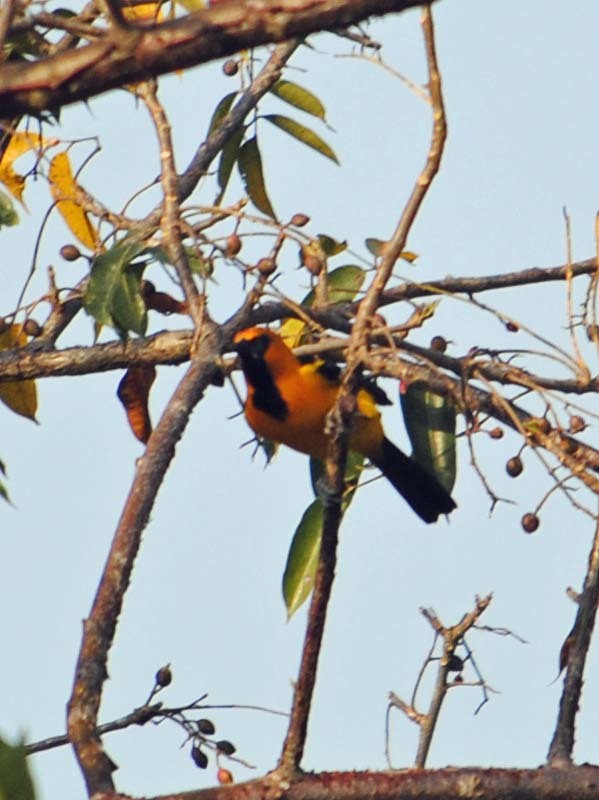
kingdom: Animalia
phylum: Chordata
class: Aves
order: Passeriformes
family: Icteridae
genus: Icterus
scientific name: Icterus gularis
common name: Altamira oriole
